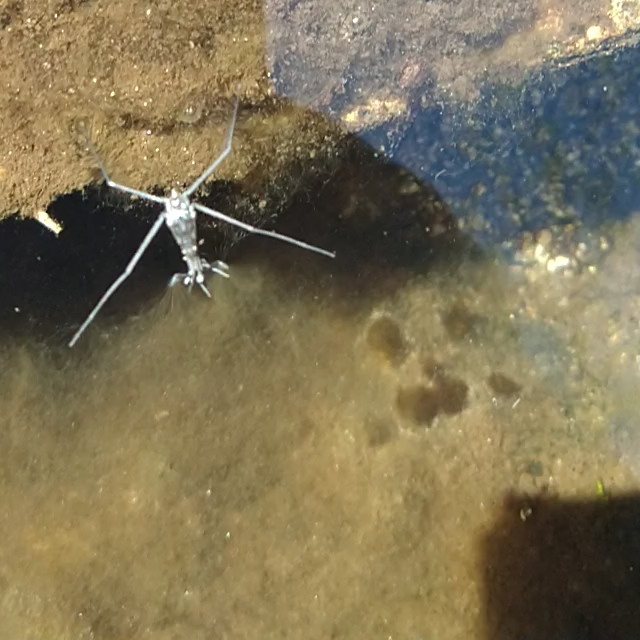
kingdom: Animalia
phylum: Arthropoda
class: Insecta
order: Hemiptera
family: Gerridae
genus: Aquarius
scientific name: Aquarius remigis
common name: Common water strider
